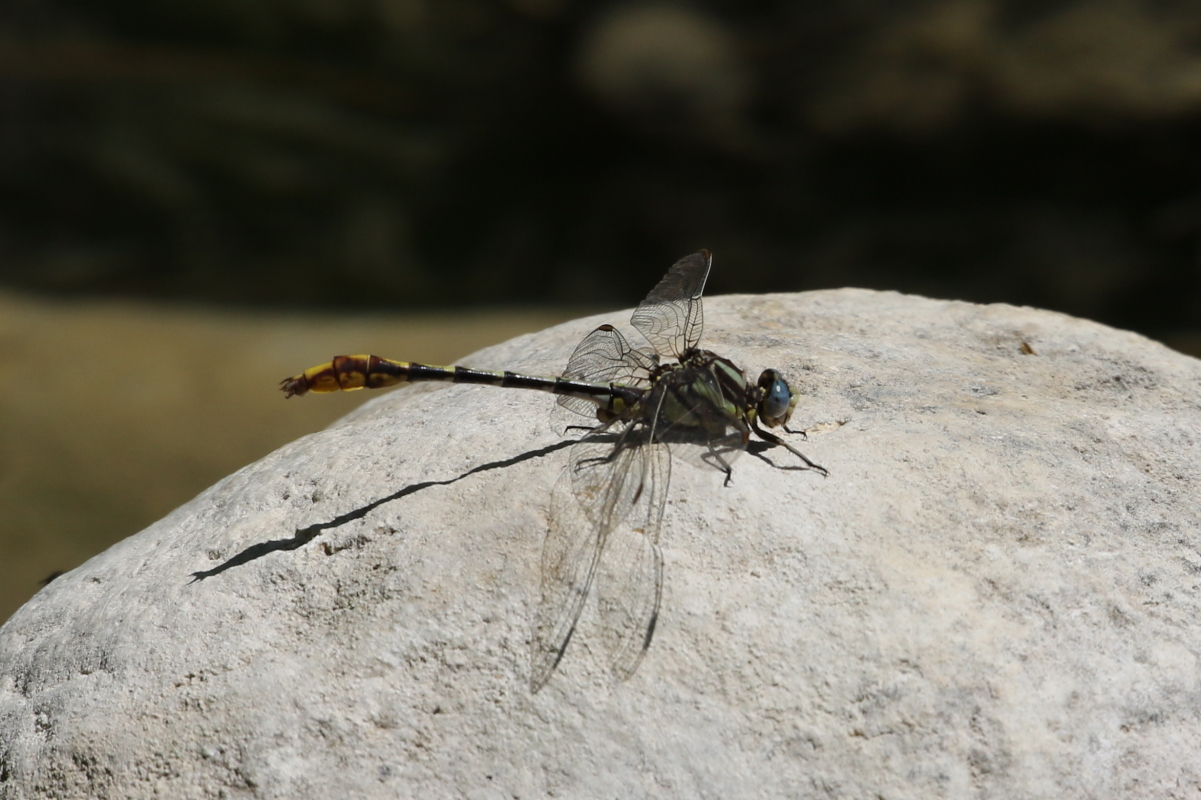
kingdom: Animalia
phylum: Arthropoda
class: Insecta
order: Odonata
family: Gomphidae
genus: Phanogomphus
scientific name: Phanogomphus militaris
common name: Sulphur-tipped clubtail
